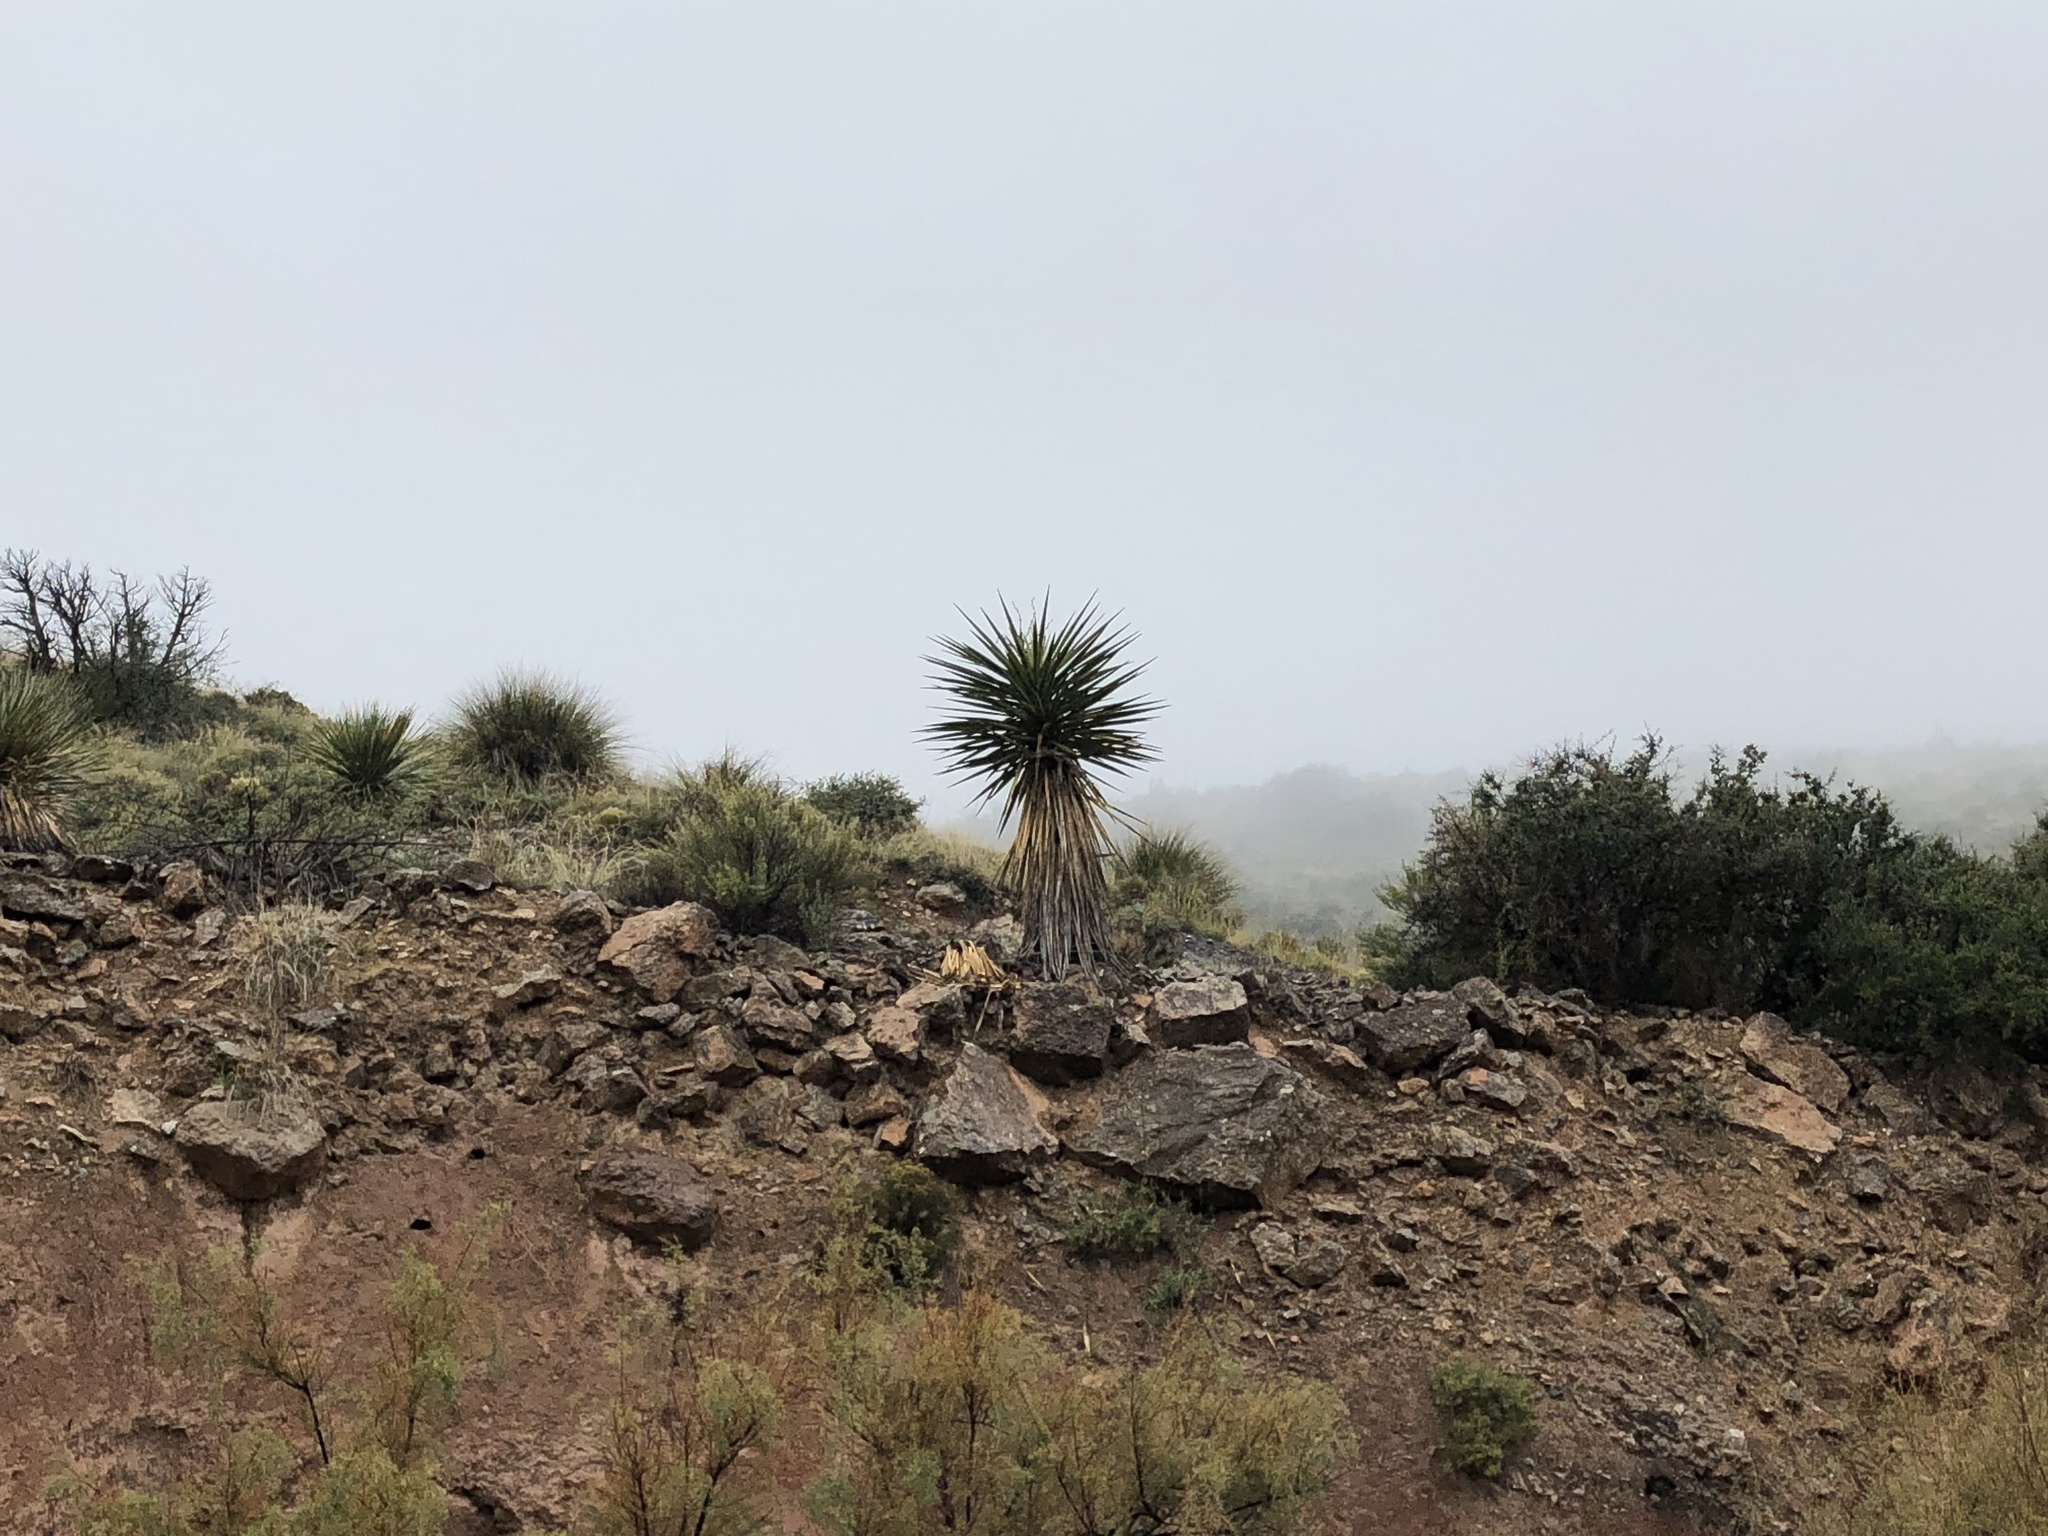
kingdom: Plantae
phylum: Tracheophyta
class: Liliopsida
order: Asparagales
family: Asparagaceae
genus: Yucca
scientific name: Yucca treculiana
